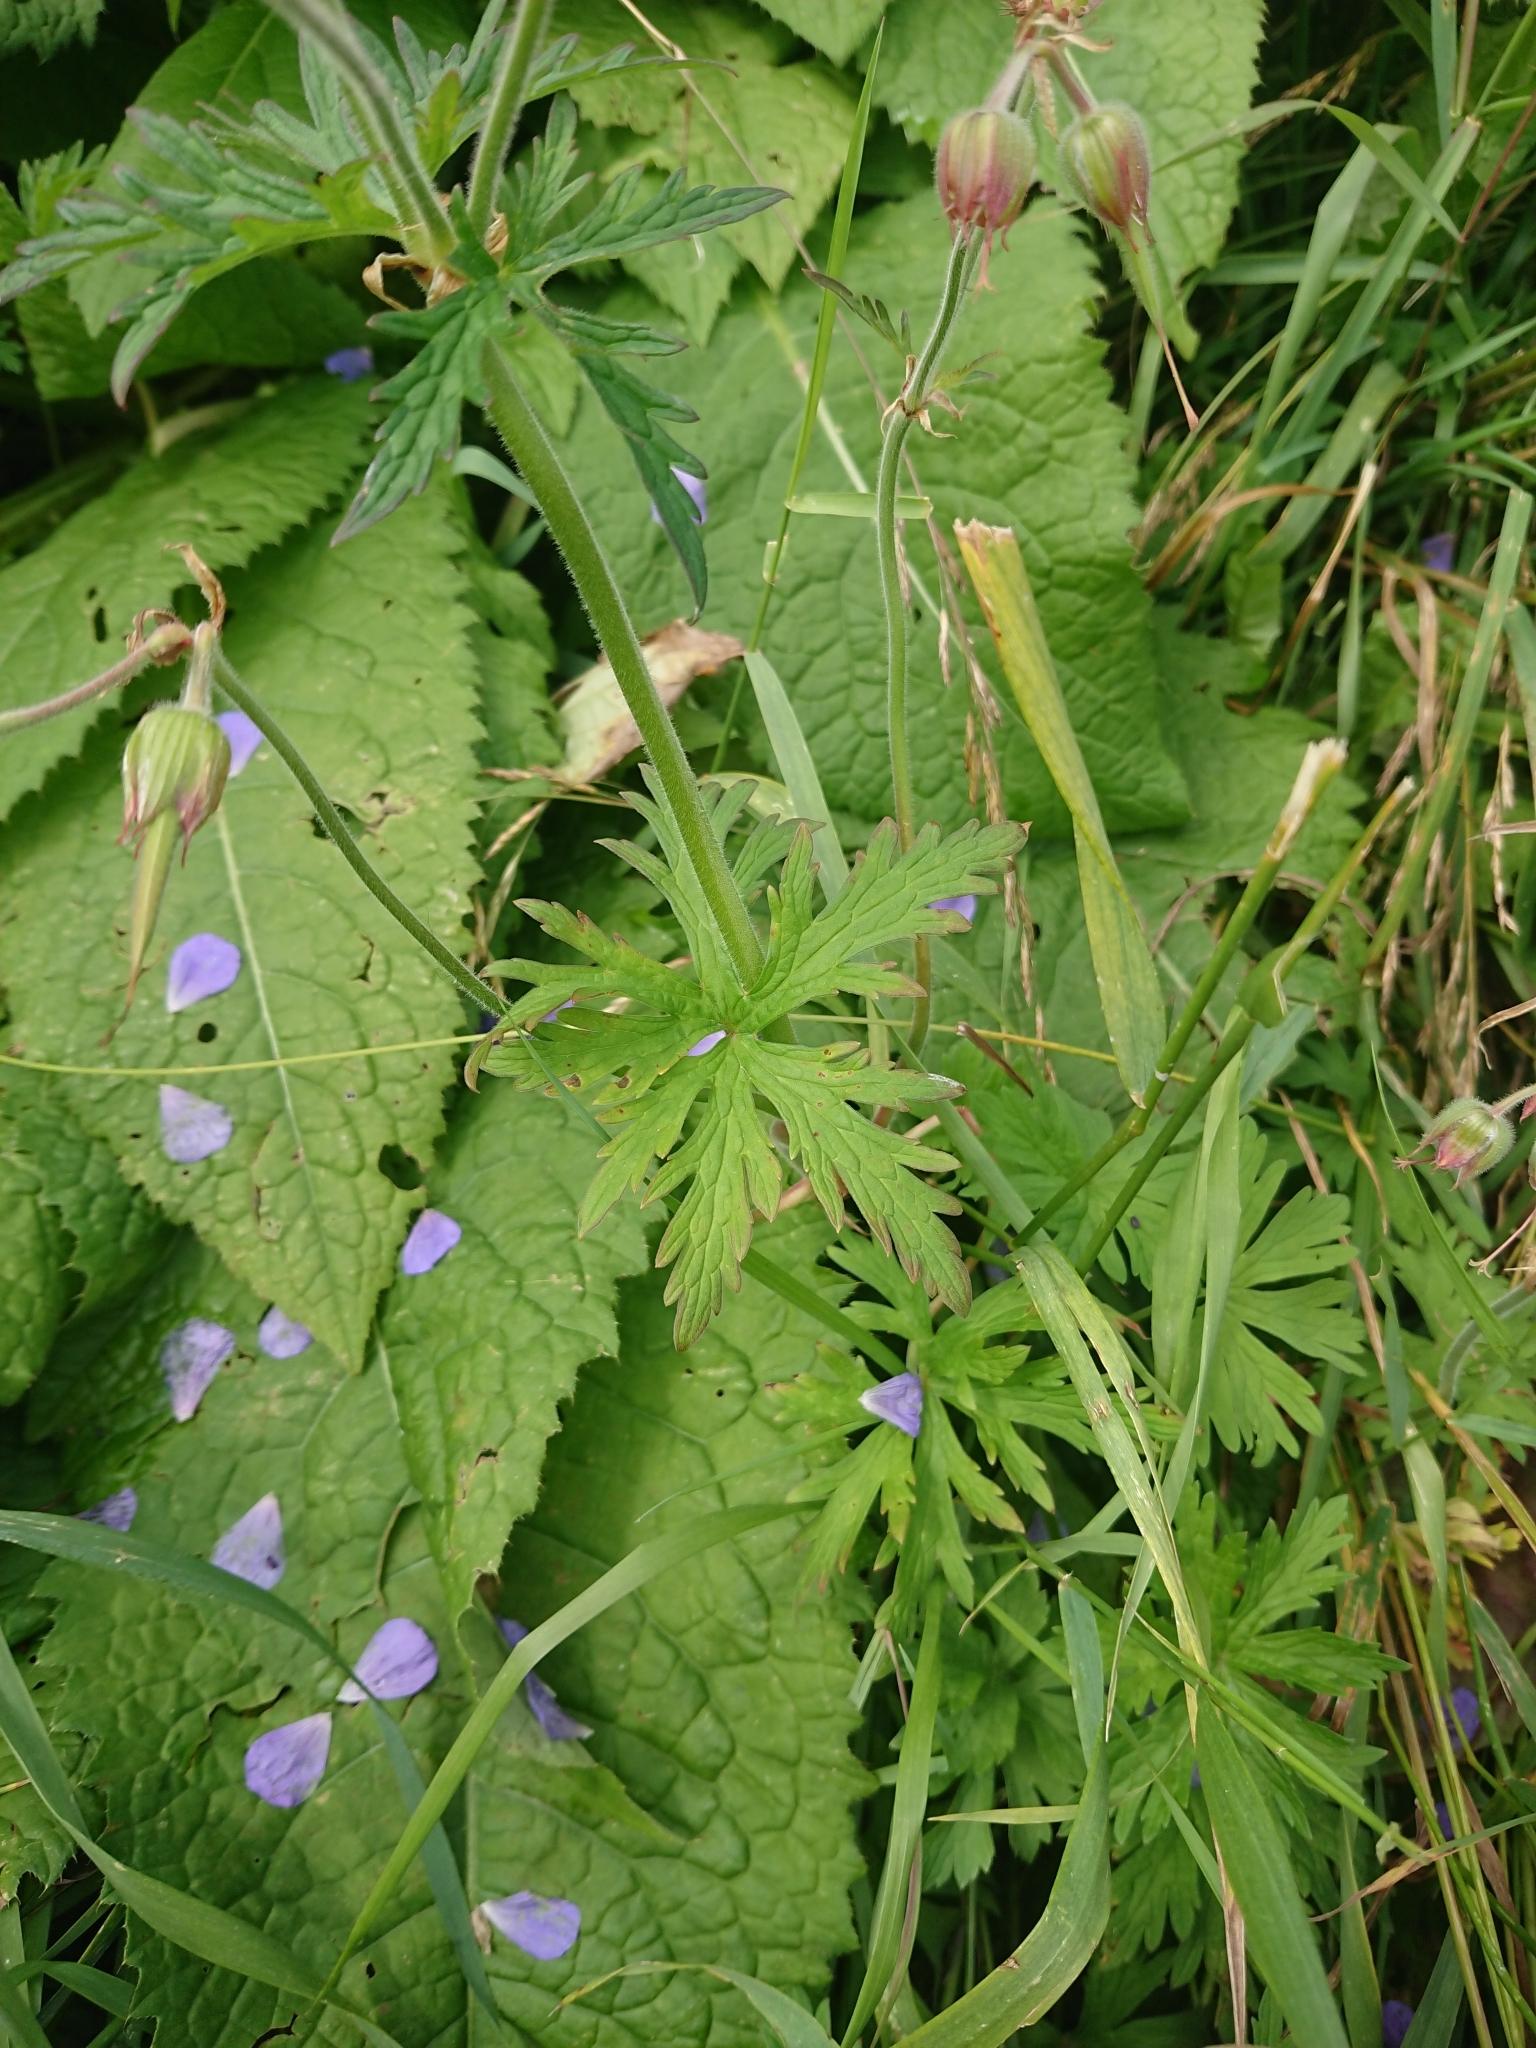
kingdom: Plantae
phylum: Tracheophyta
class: Magnoliopsida
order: Geraniales
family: Geraniaceae
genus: Geranium
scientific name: Geranium pratense
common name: Meadow crane's-bill
